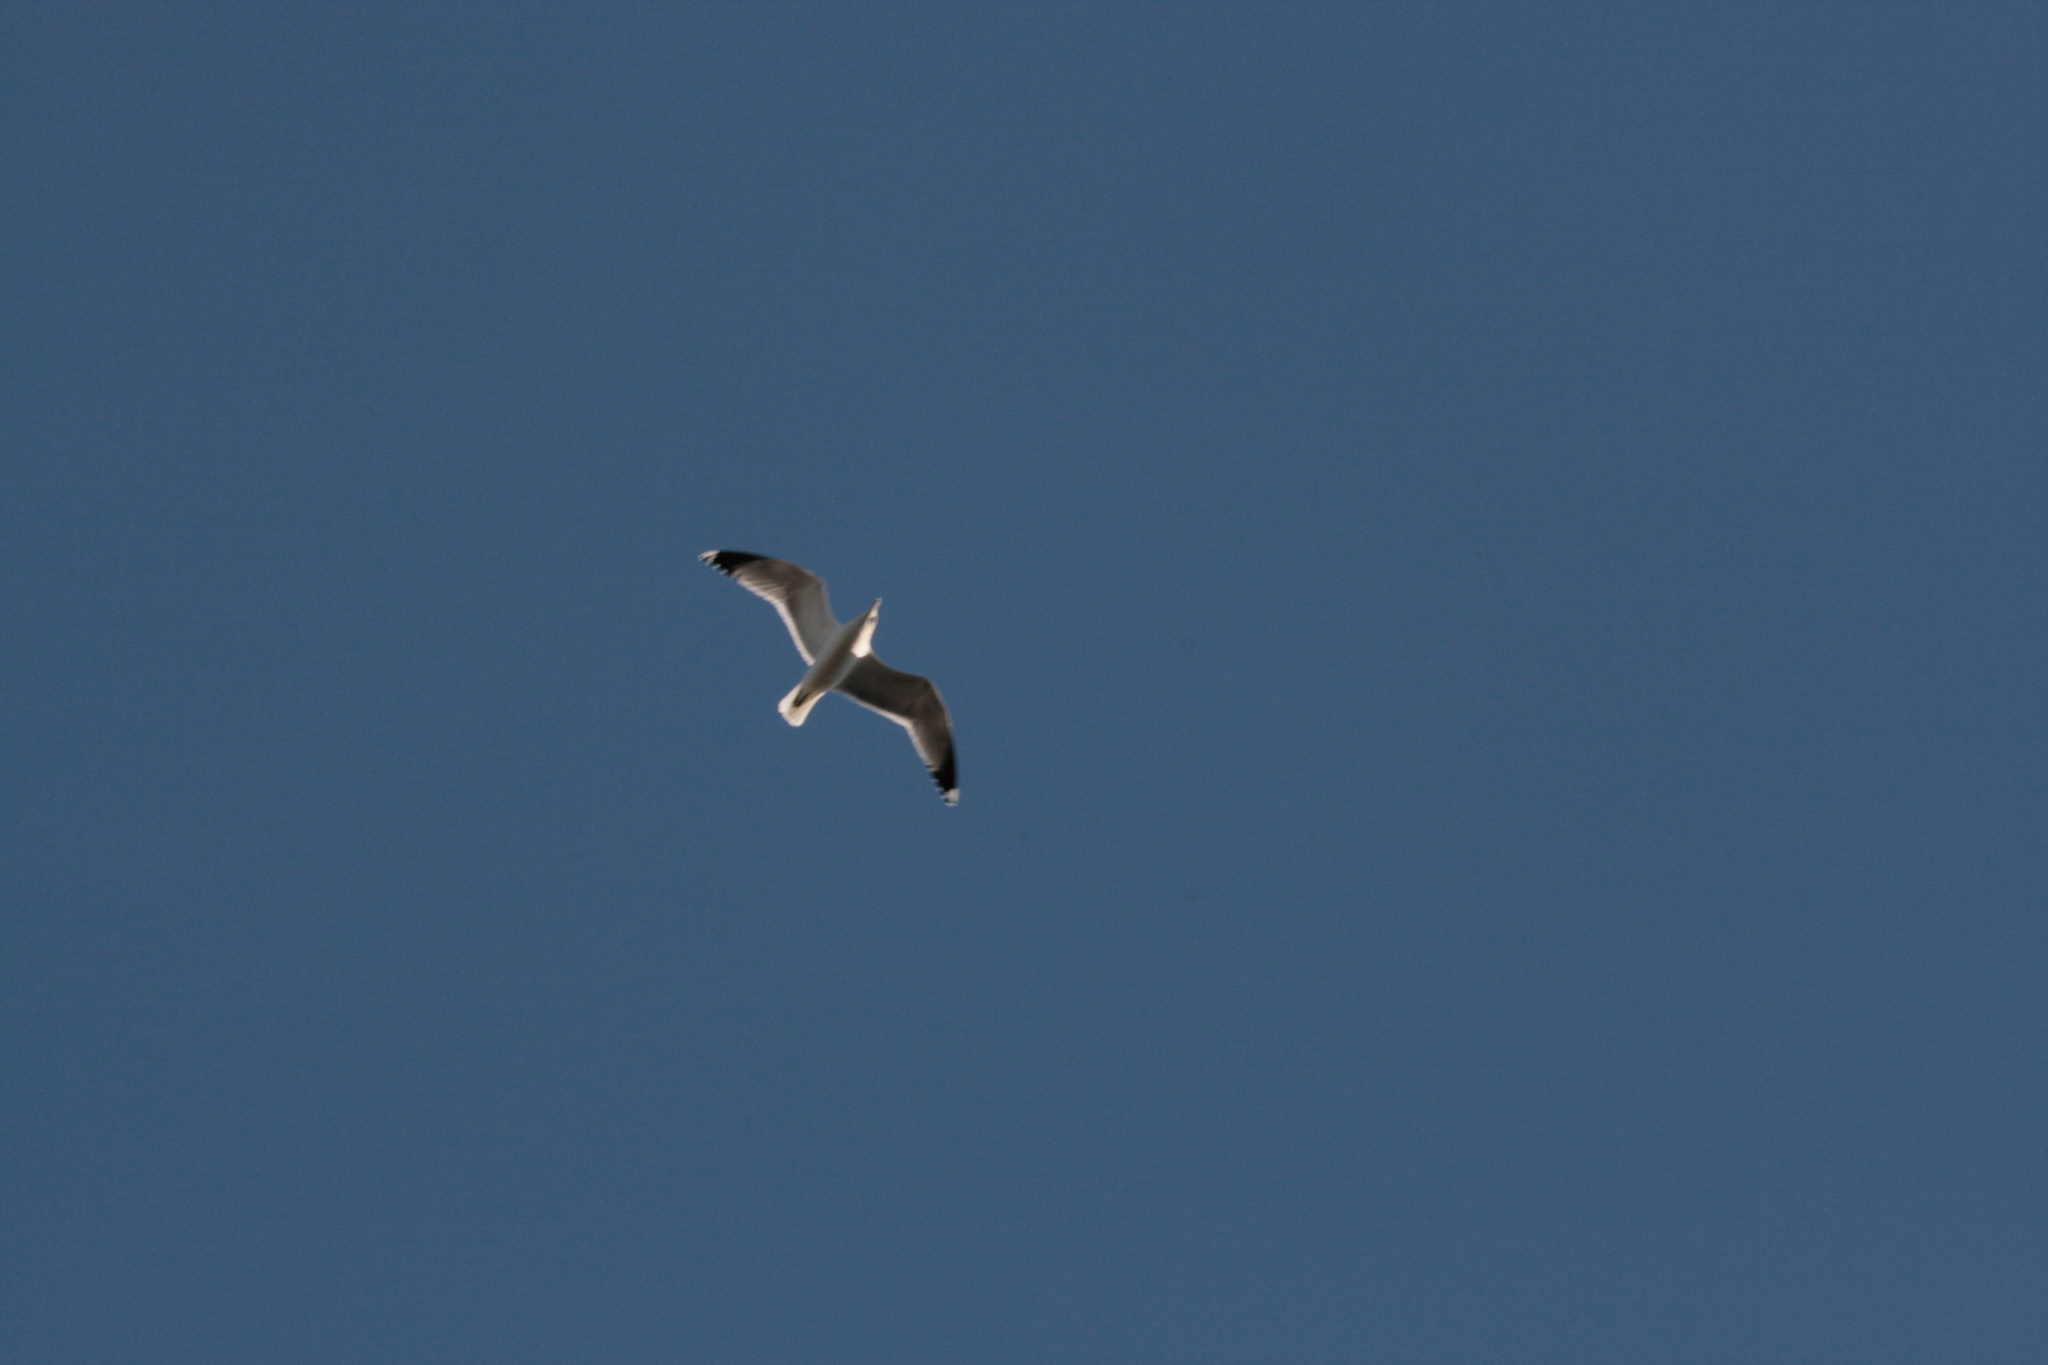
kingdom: Animalia
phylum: Chordata
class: Aves
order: Charadriiformes
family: Laridae
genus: Larus
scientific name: Larus californicus
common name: California gull
